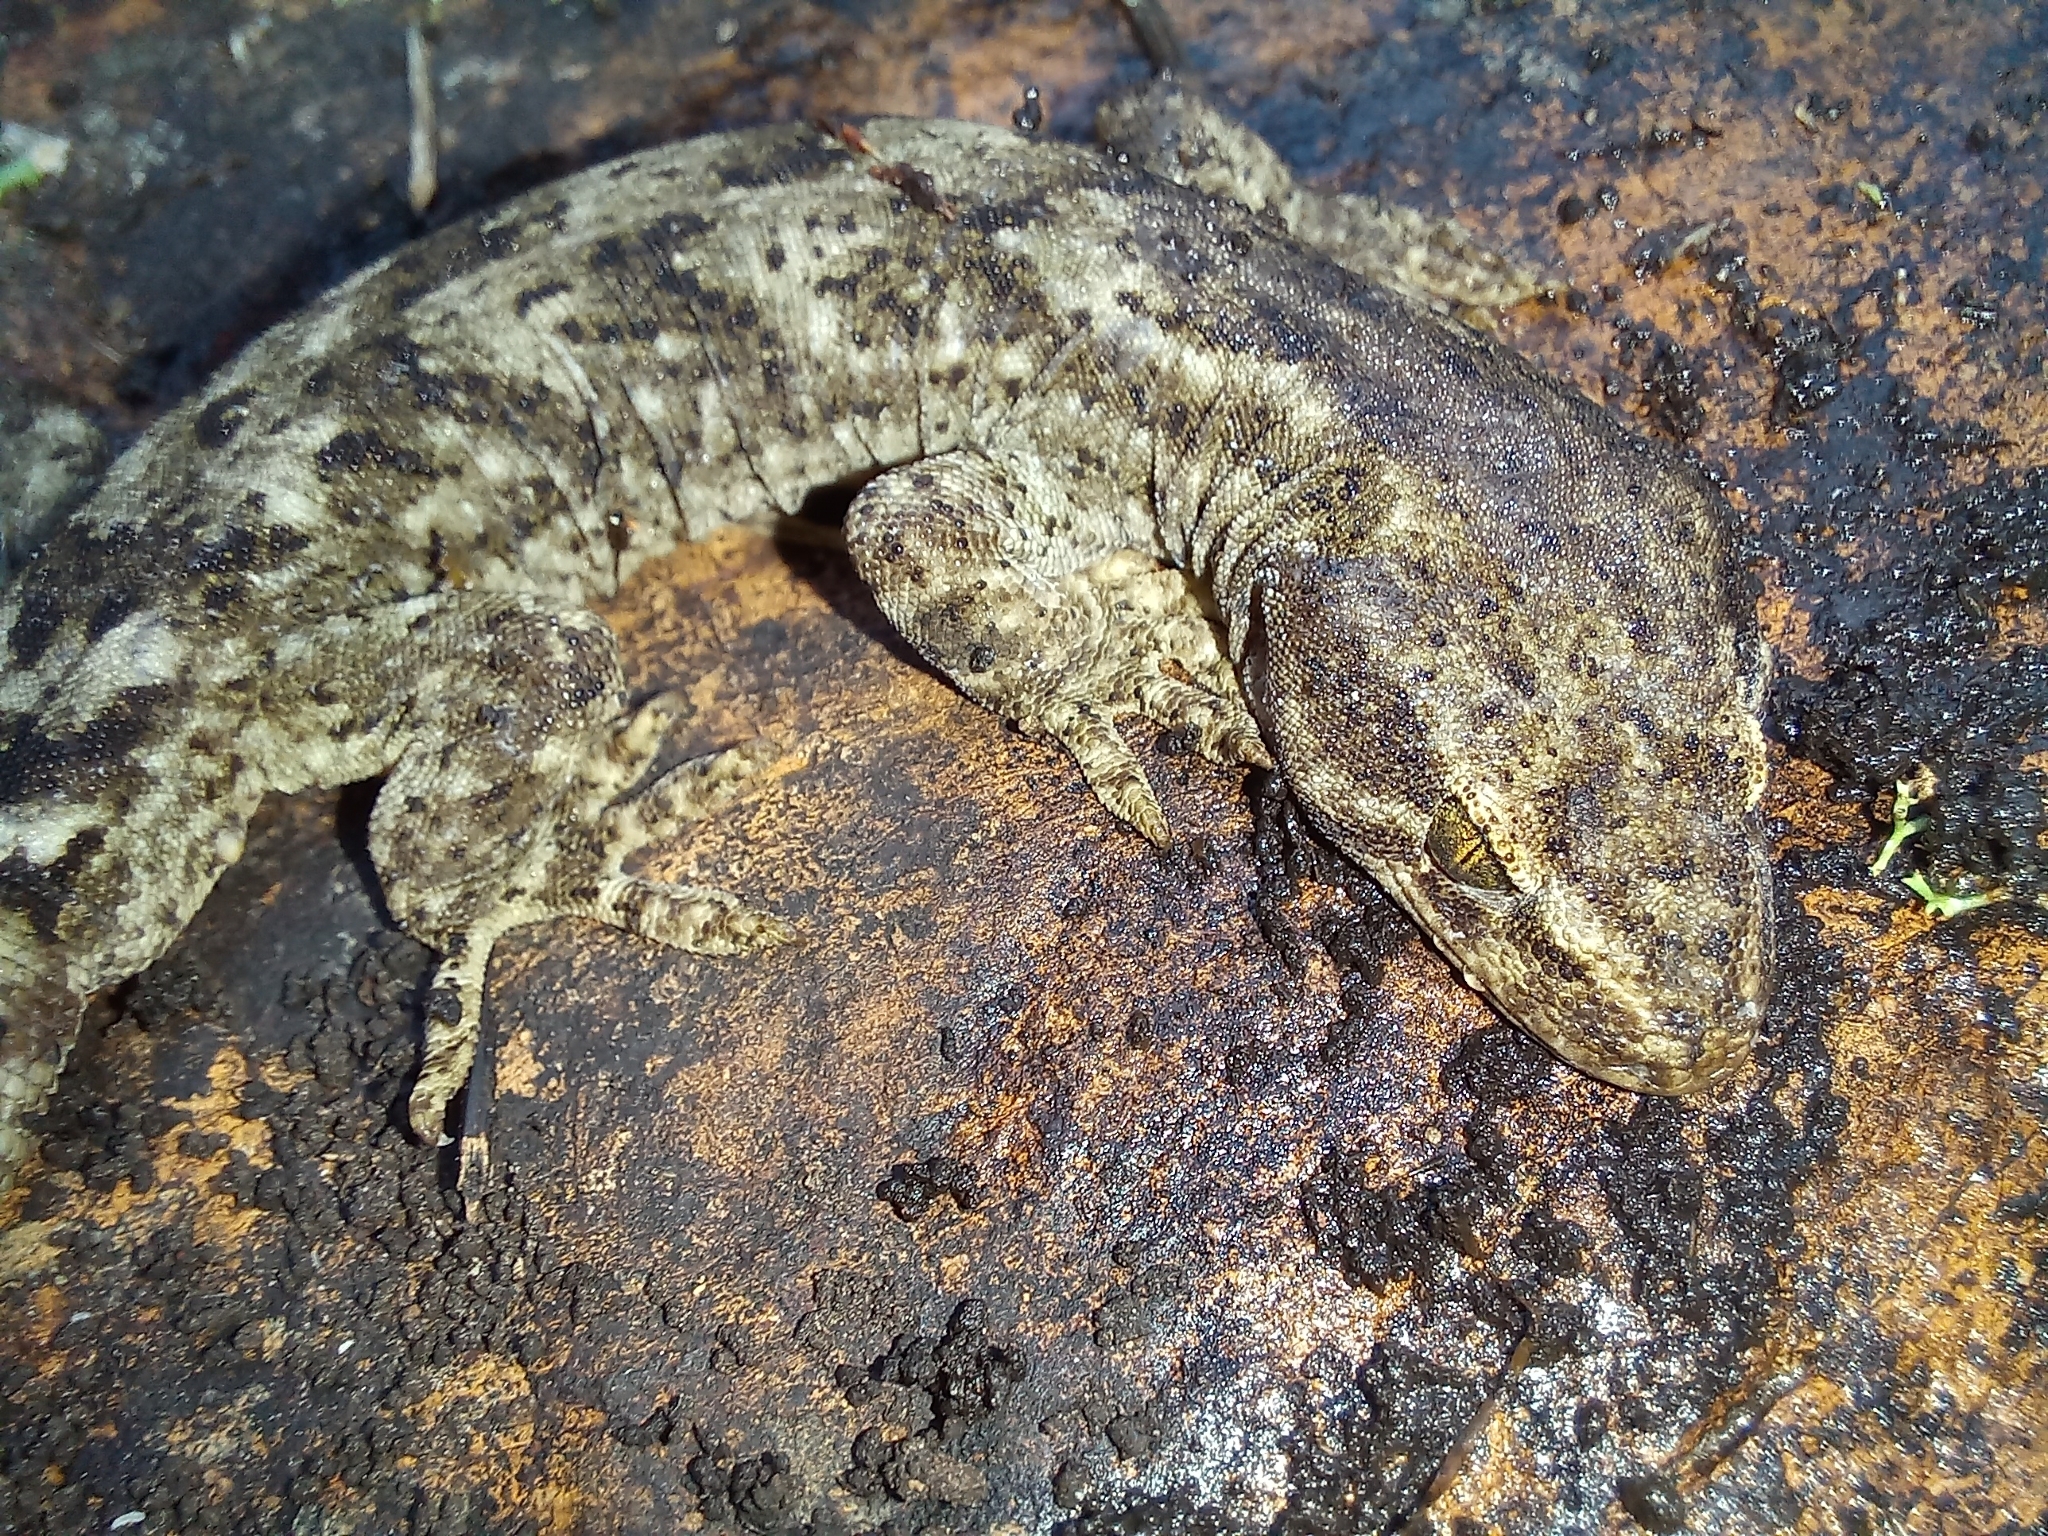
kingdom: Animalia
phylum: Chordata
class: Squamata
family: Diplodactylidae
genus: Woodworthia
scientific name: Woodworthia brunnea
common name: Canterbury gecko
